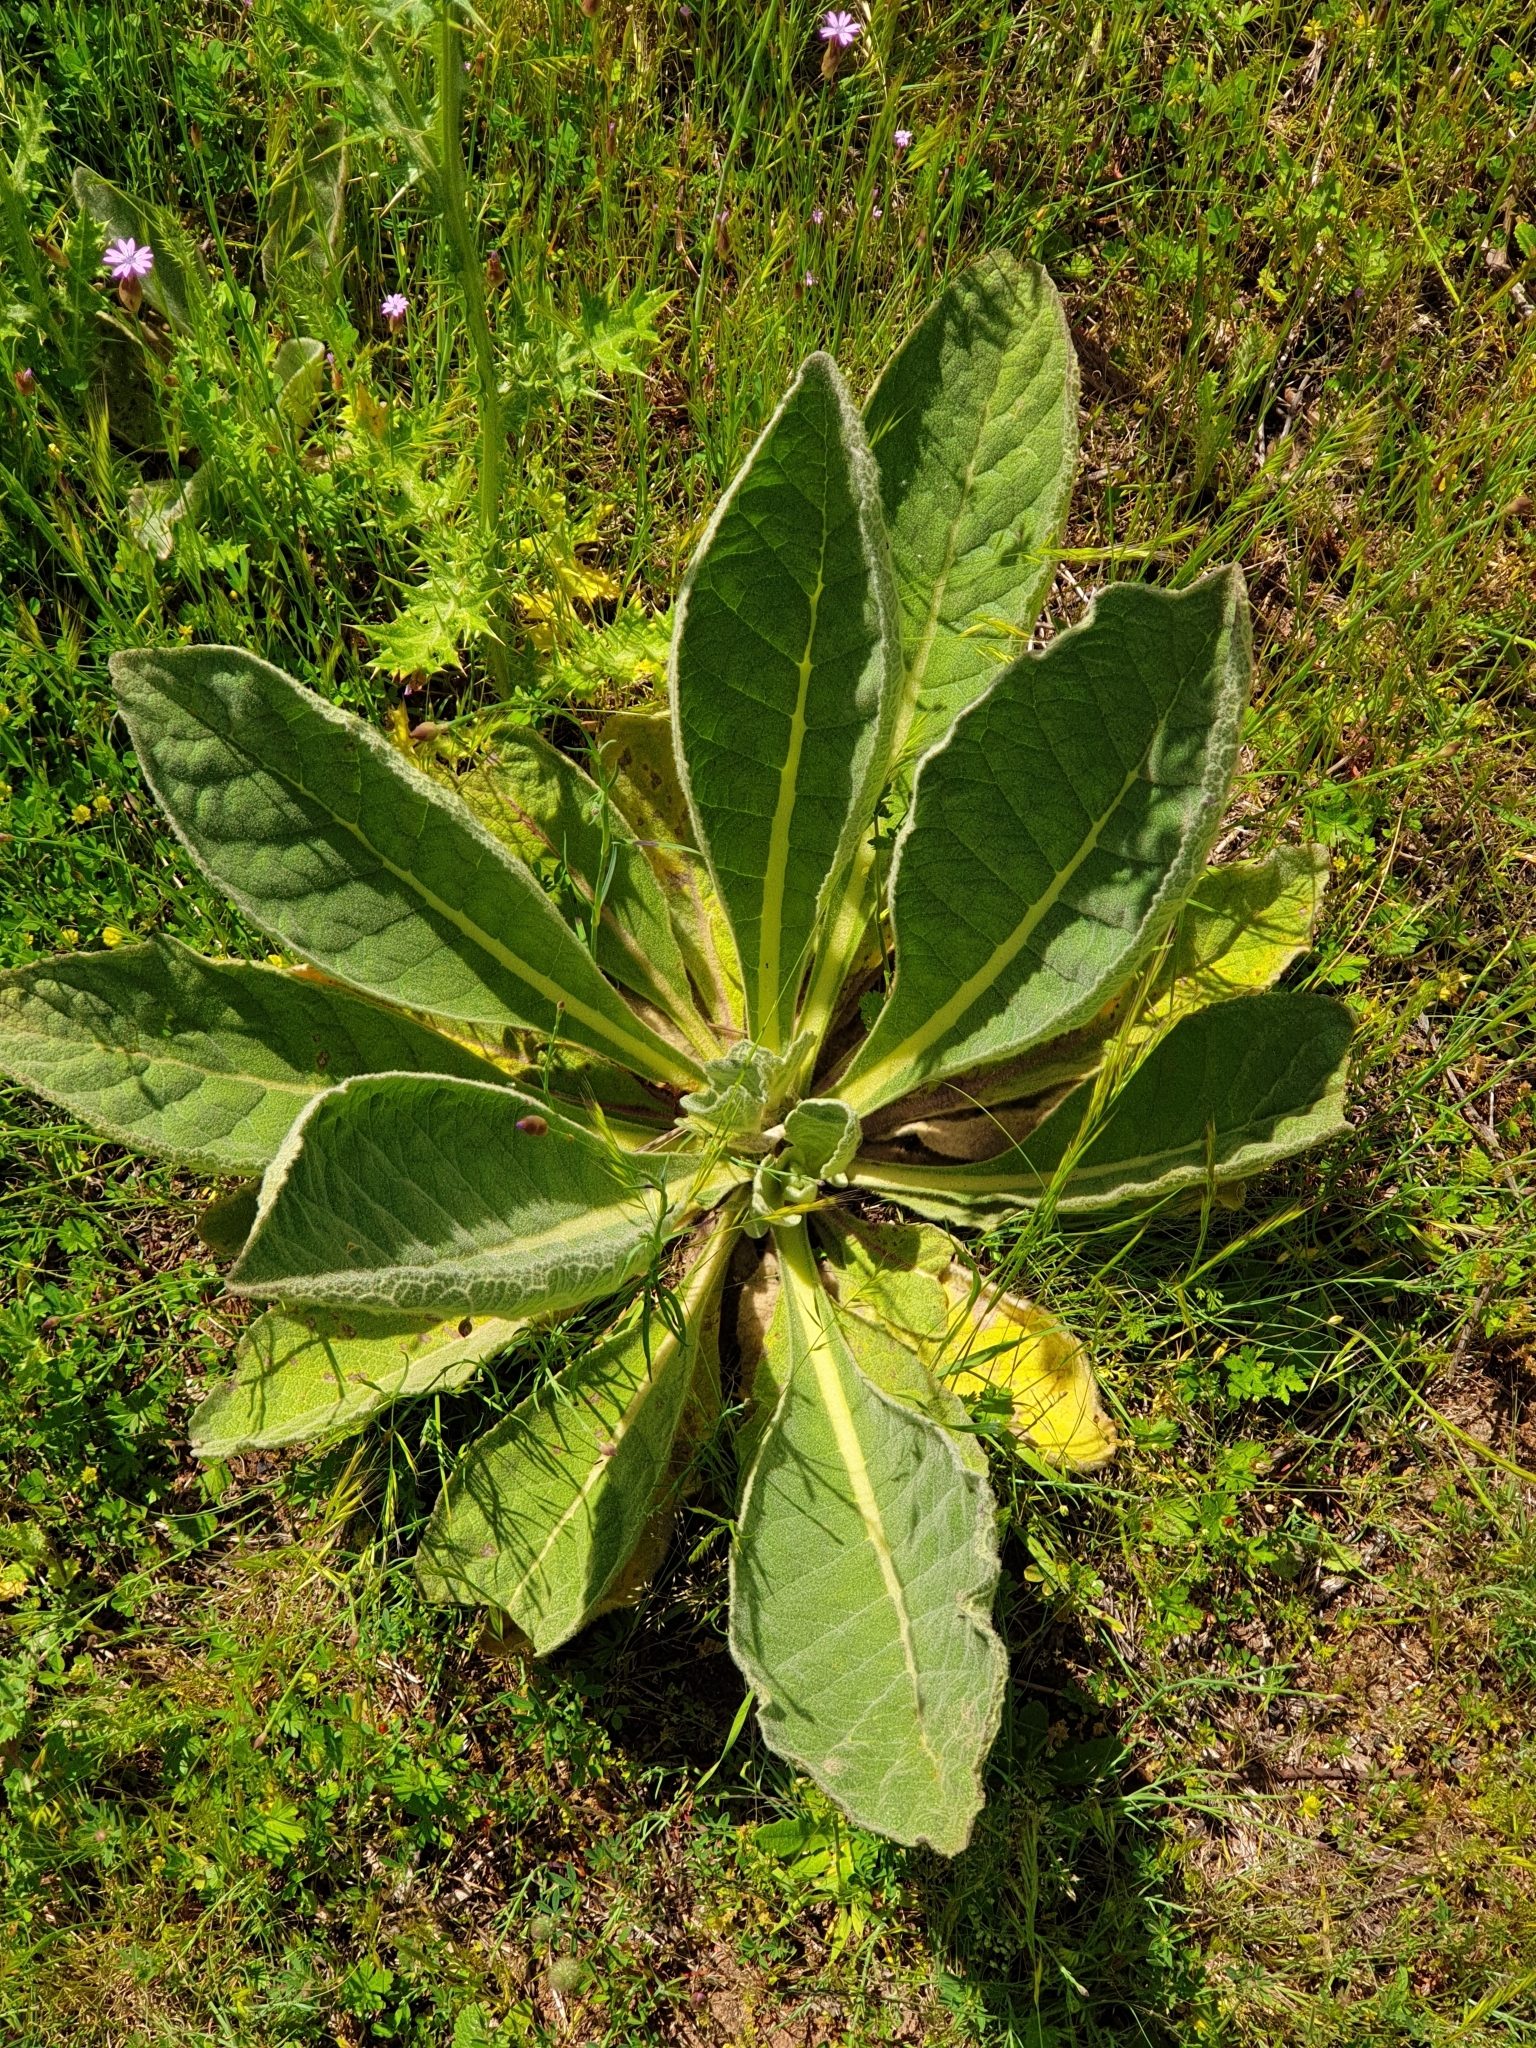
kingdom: Plantae
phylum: Tracheophyta
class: Magnoliopsida
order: Lamiales
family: Scrophulariaceae
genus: Verbascum
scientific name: Verbascum thapsus
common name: Common mullein
